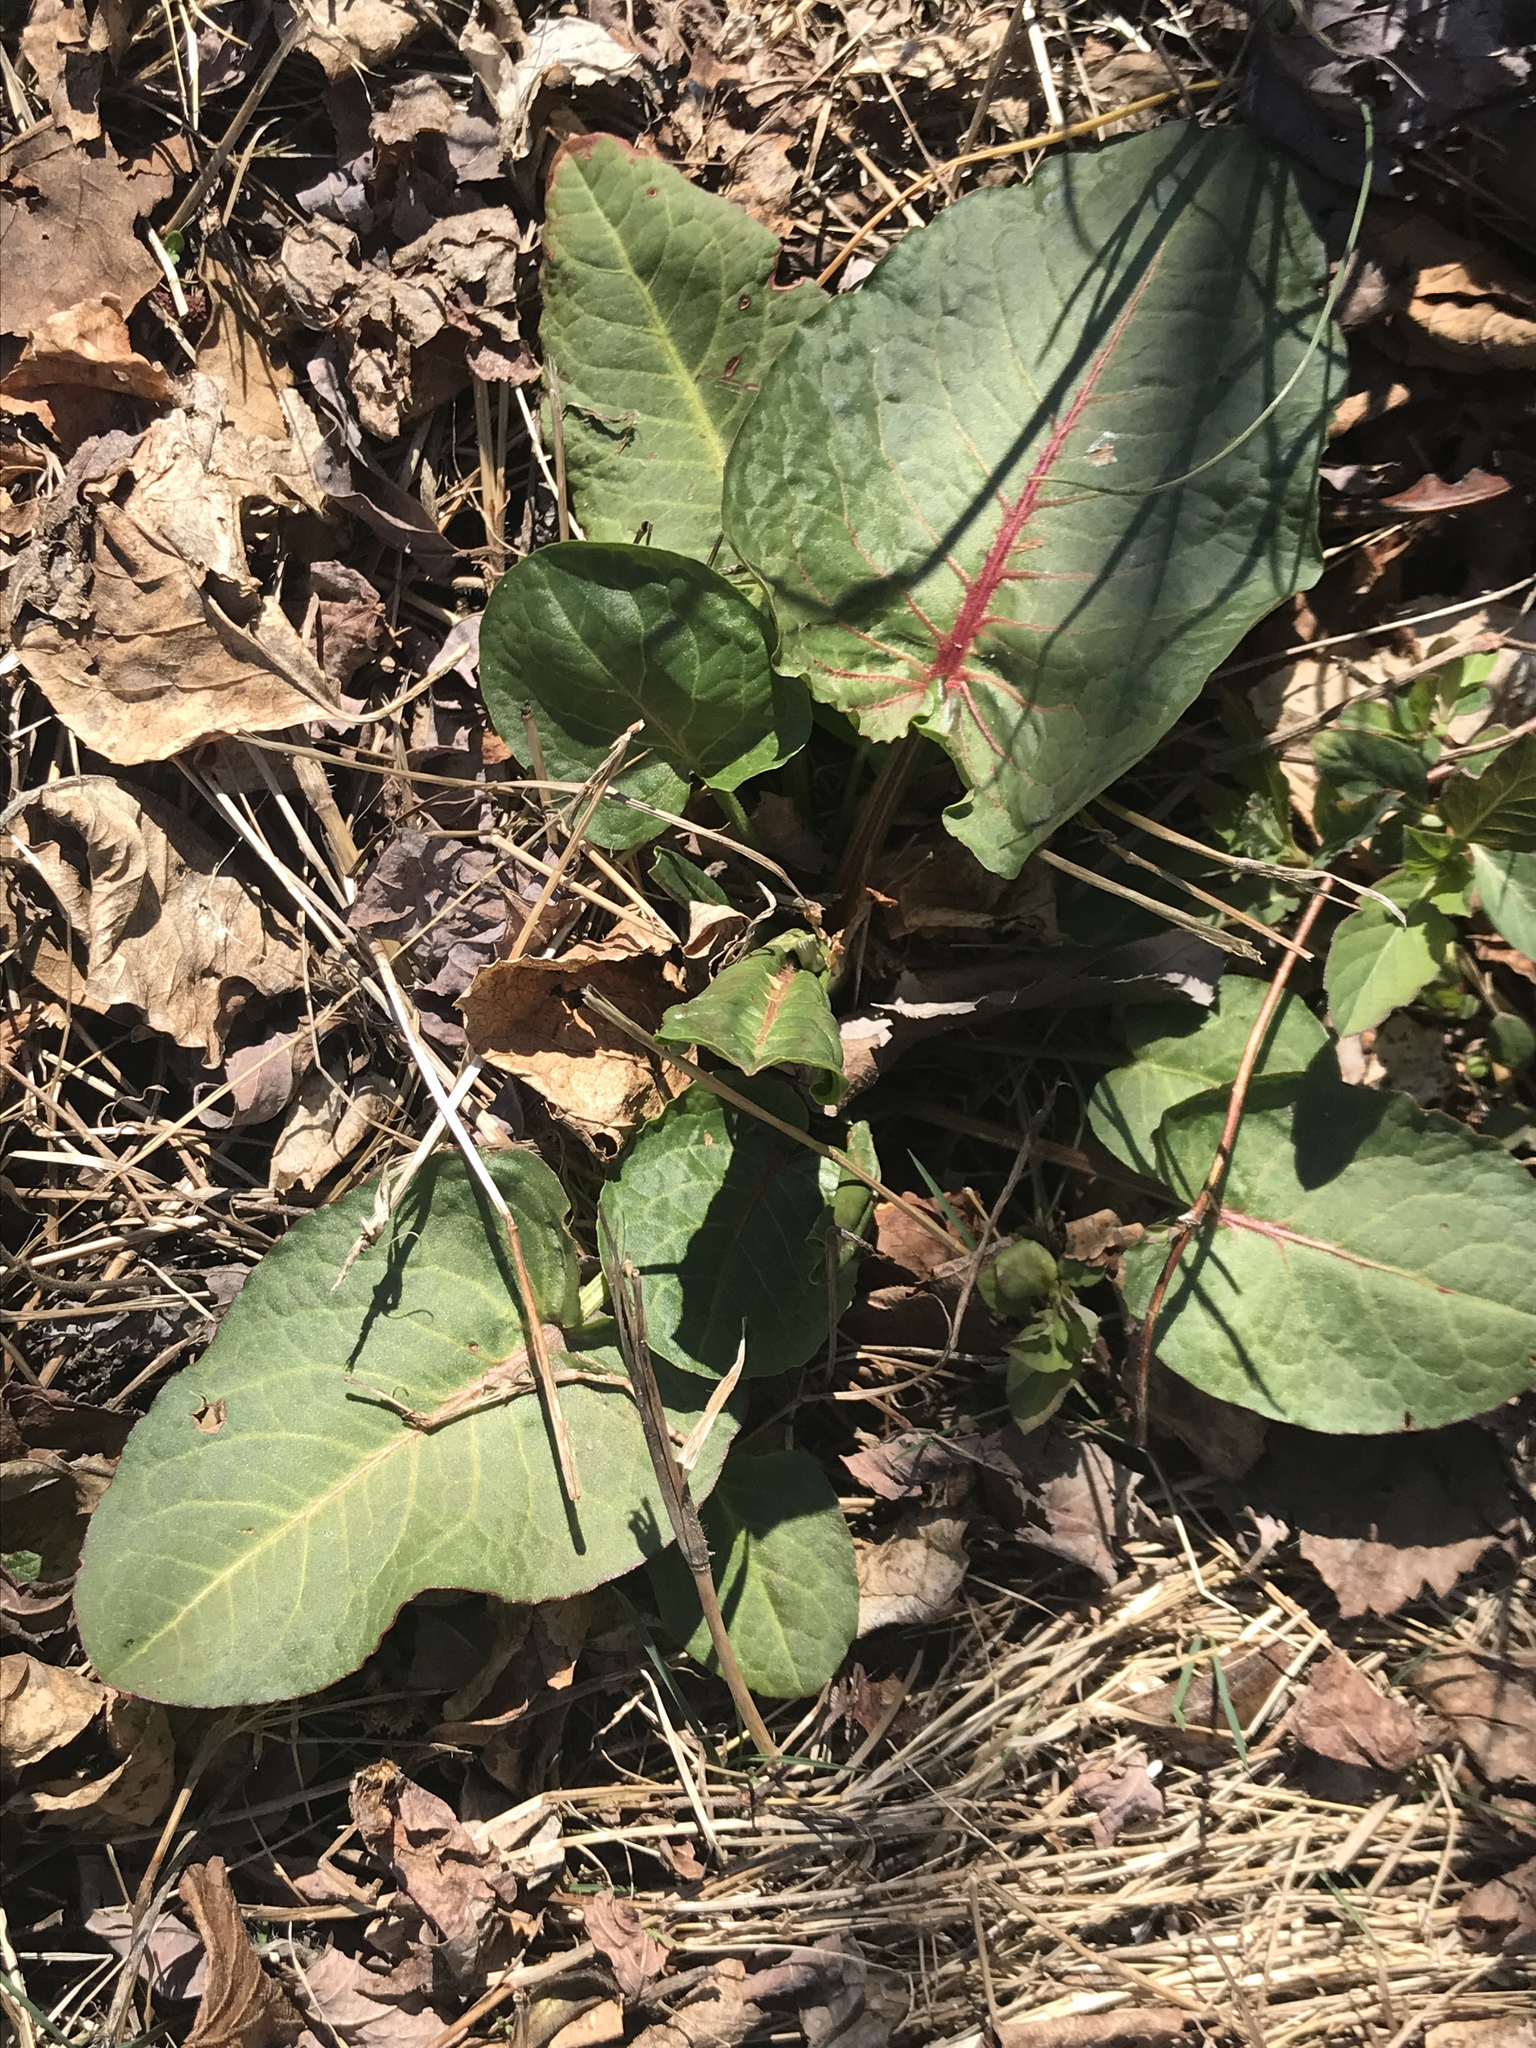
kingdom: Plantae
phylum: Tracheophyta
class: Magnoliopsida
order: Caryophyllales
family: Polygonaceae
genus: Rumex
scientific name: Rumex obtusifolius
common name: Bitter dock
